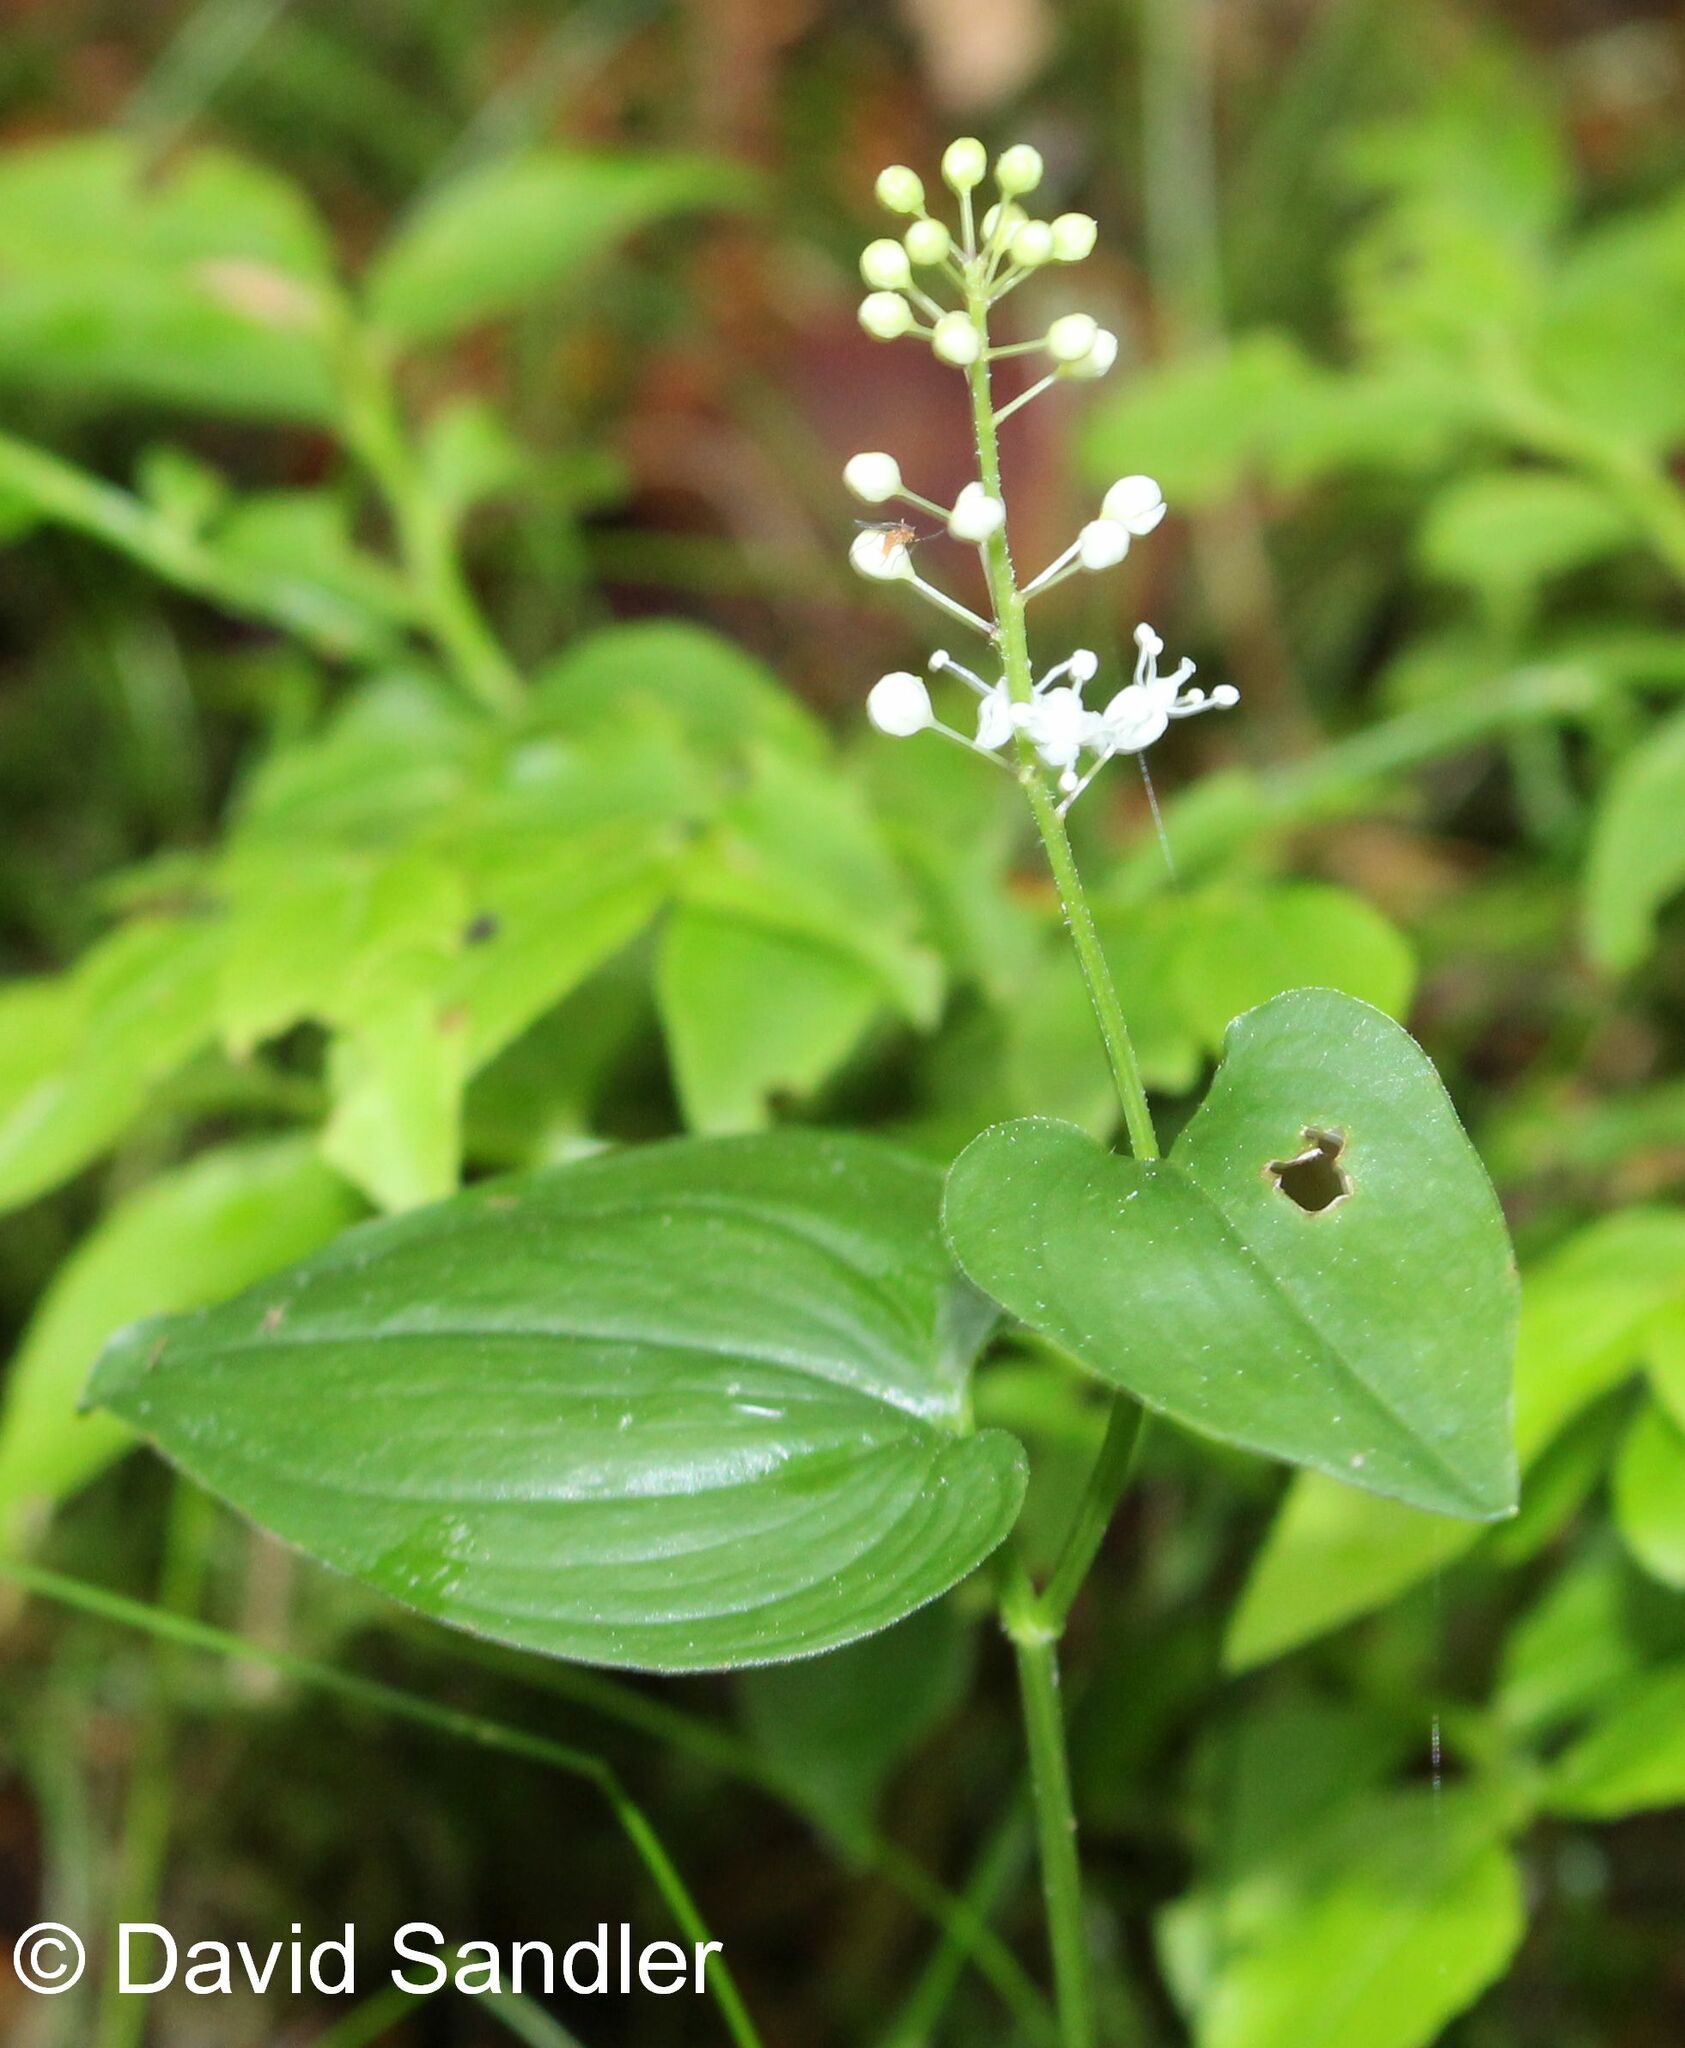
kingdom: Plantae
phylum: Tracheophyta
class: Liliopsida
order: Asparagales
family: Asparagaceae
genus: Maianthemum
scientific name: Maianthemum bifolium
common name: May lily
